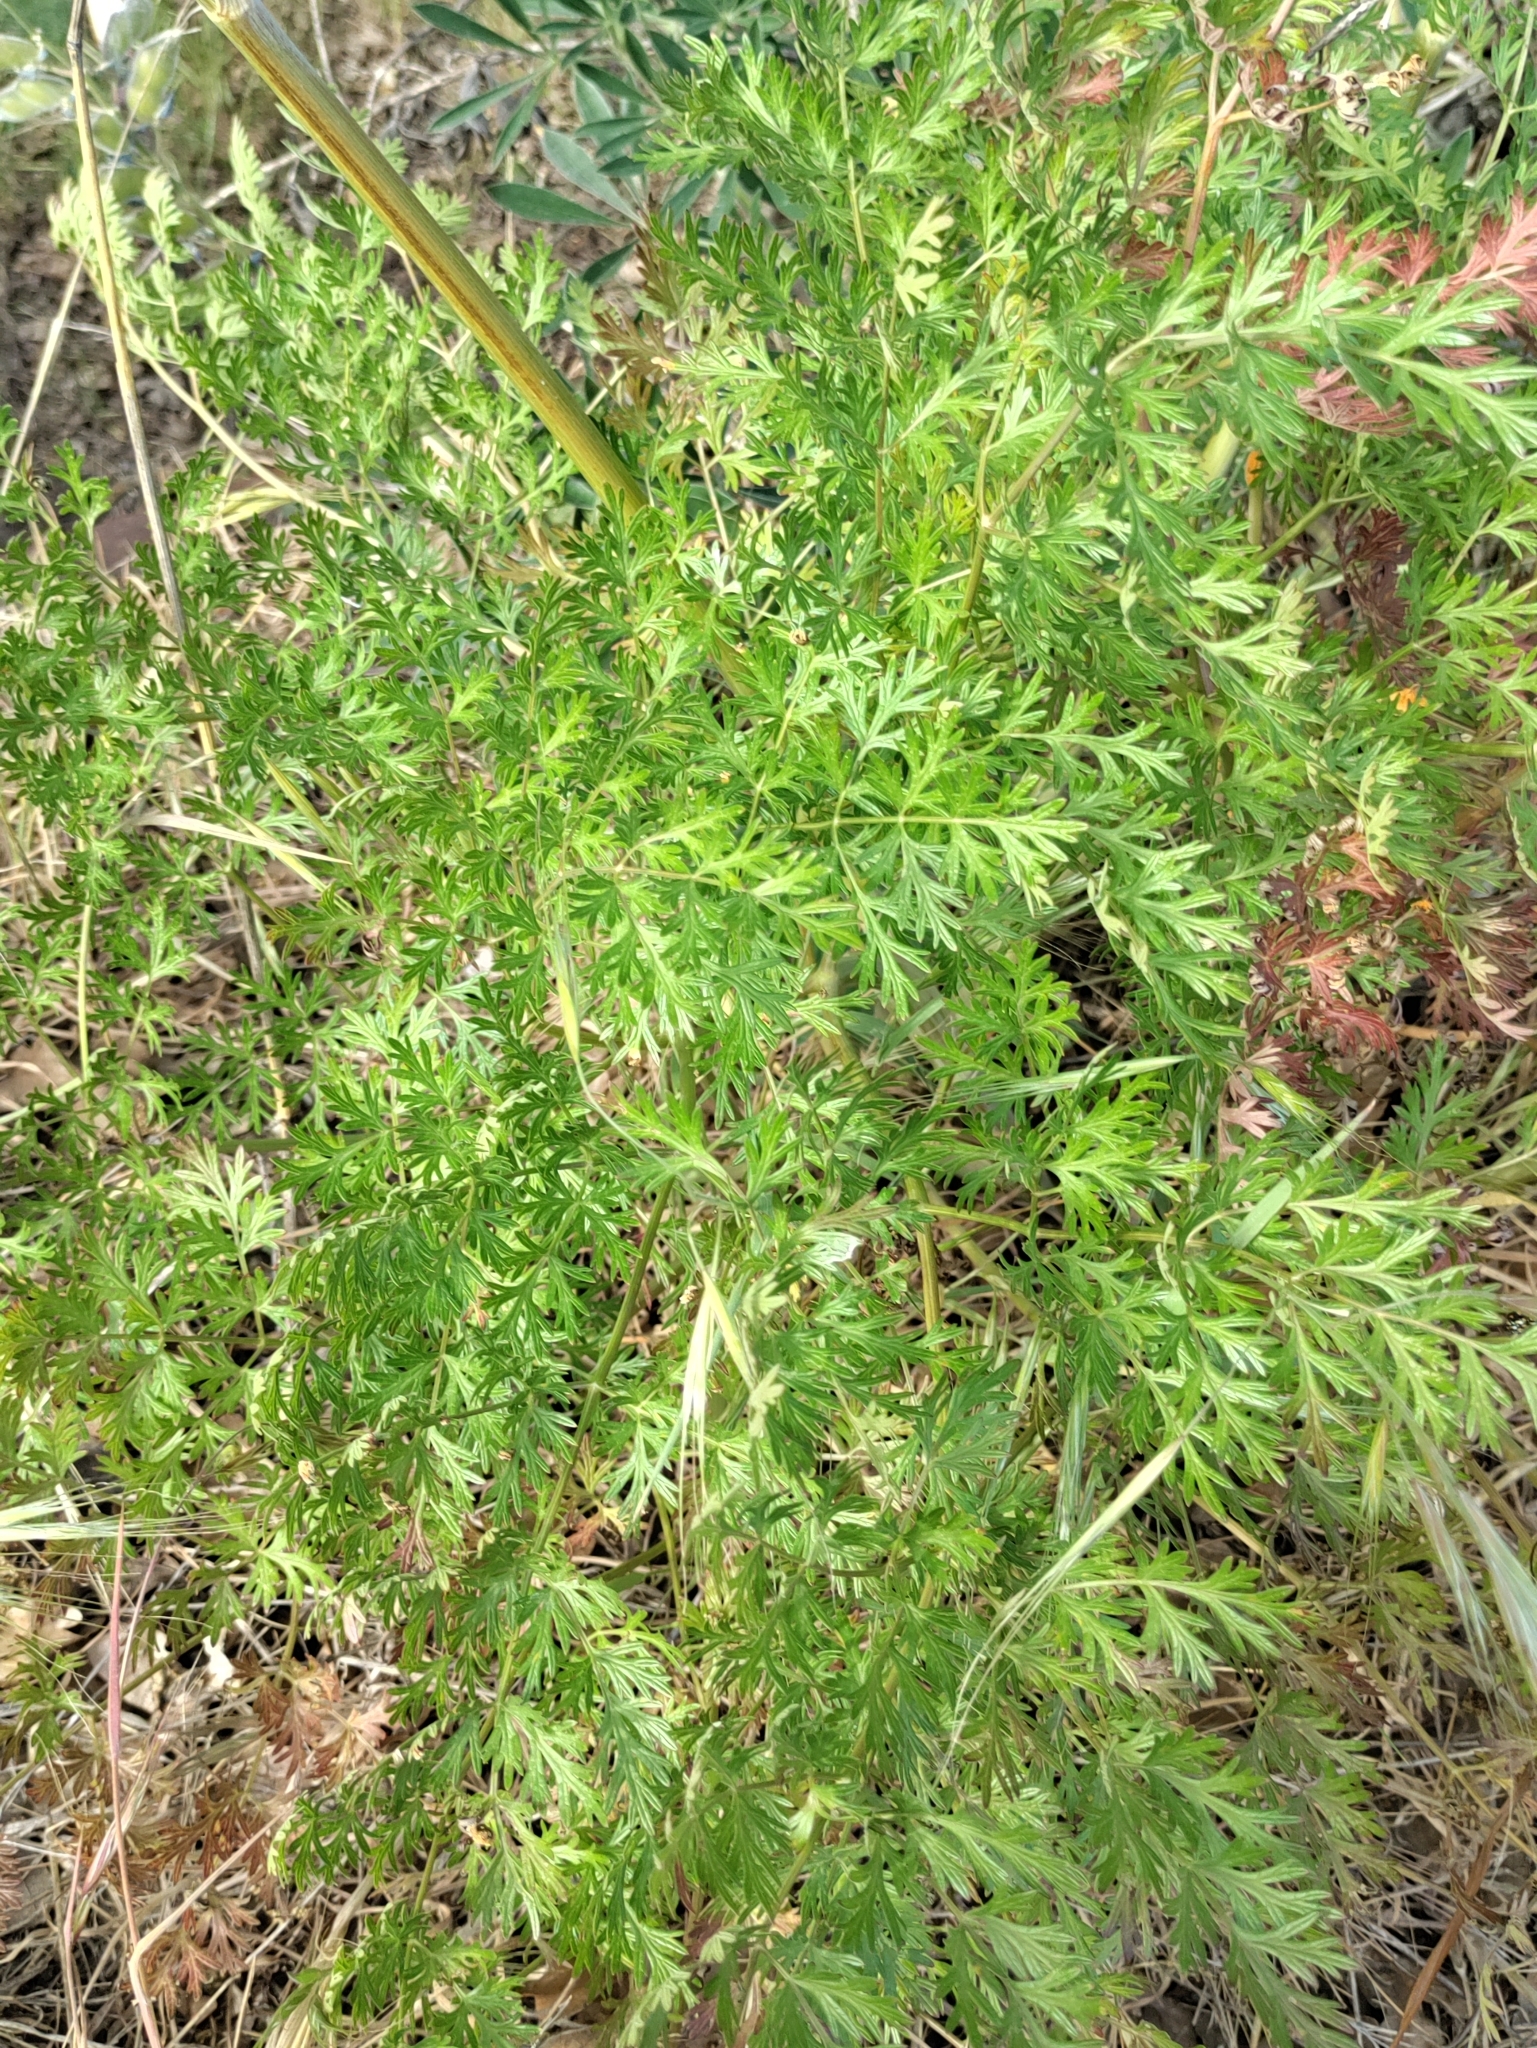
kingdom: Plantae
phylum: Tracheophyta
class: Magnoliopsida
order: Apiales
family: Apiaceae
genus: Lomatium
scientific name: Lomatium dissectum
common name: Lomatium
